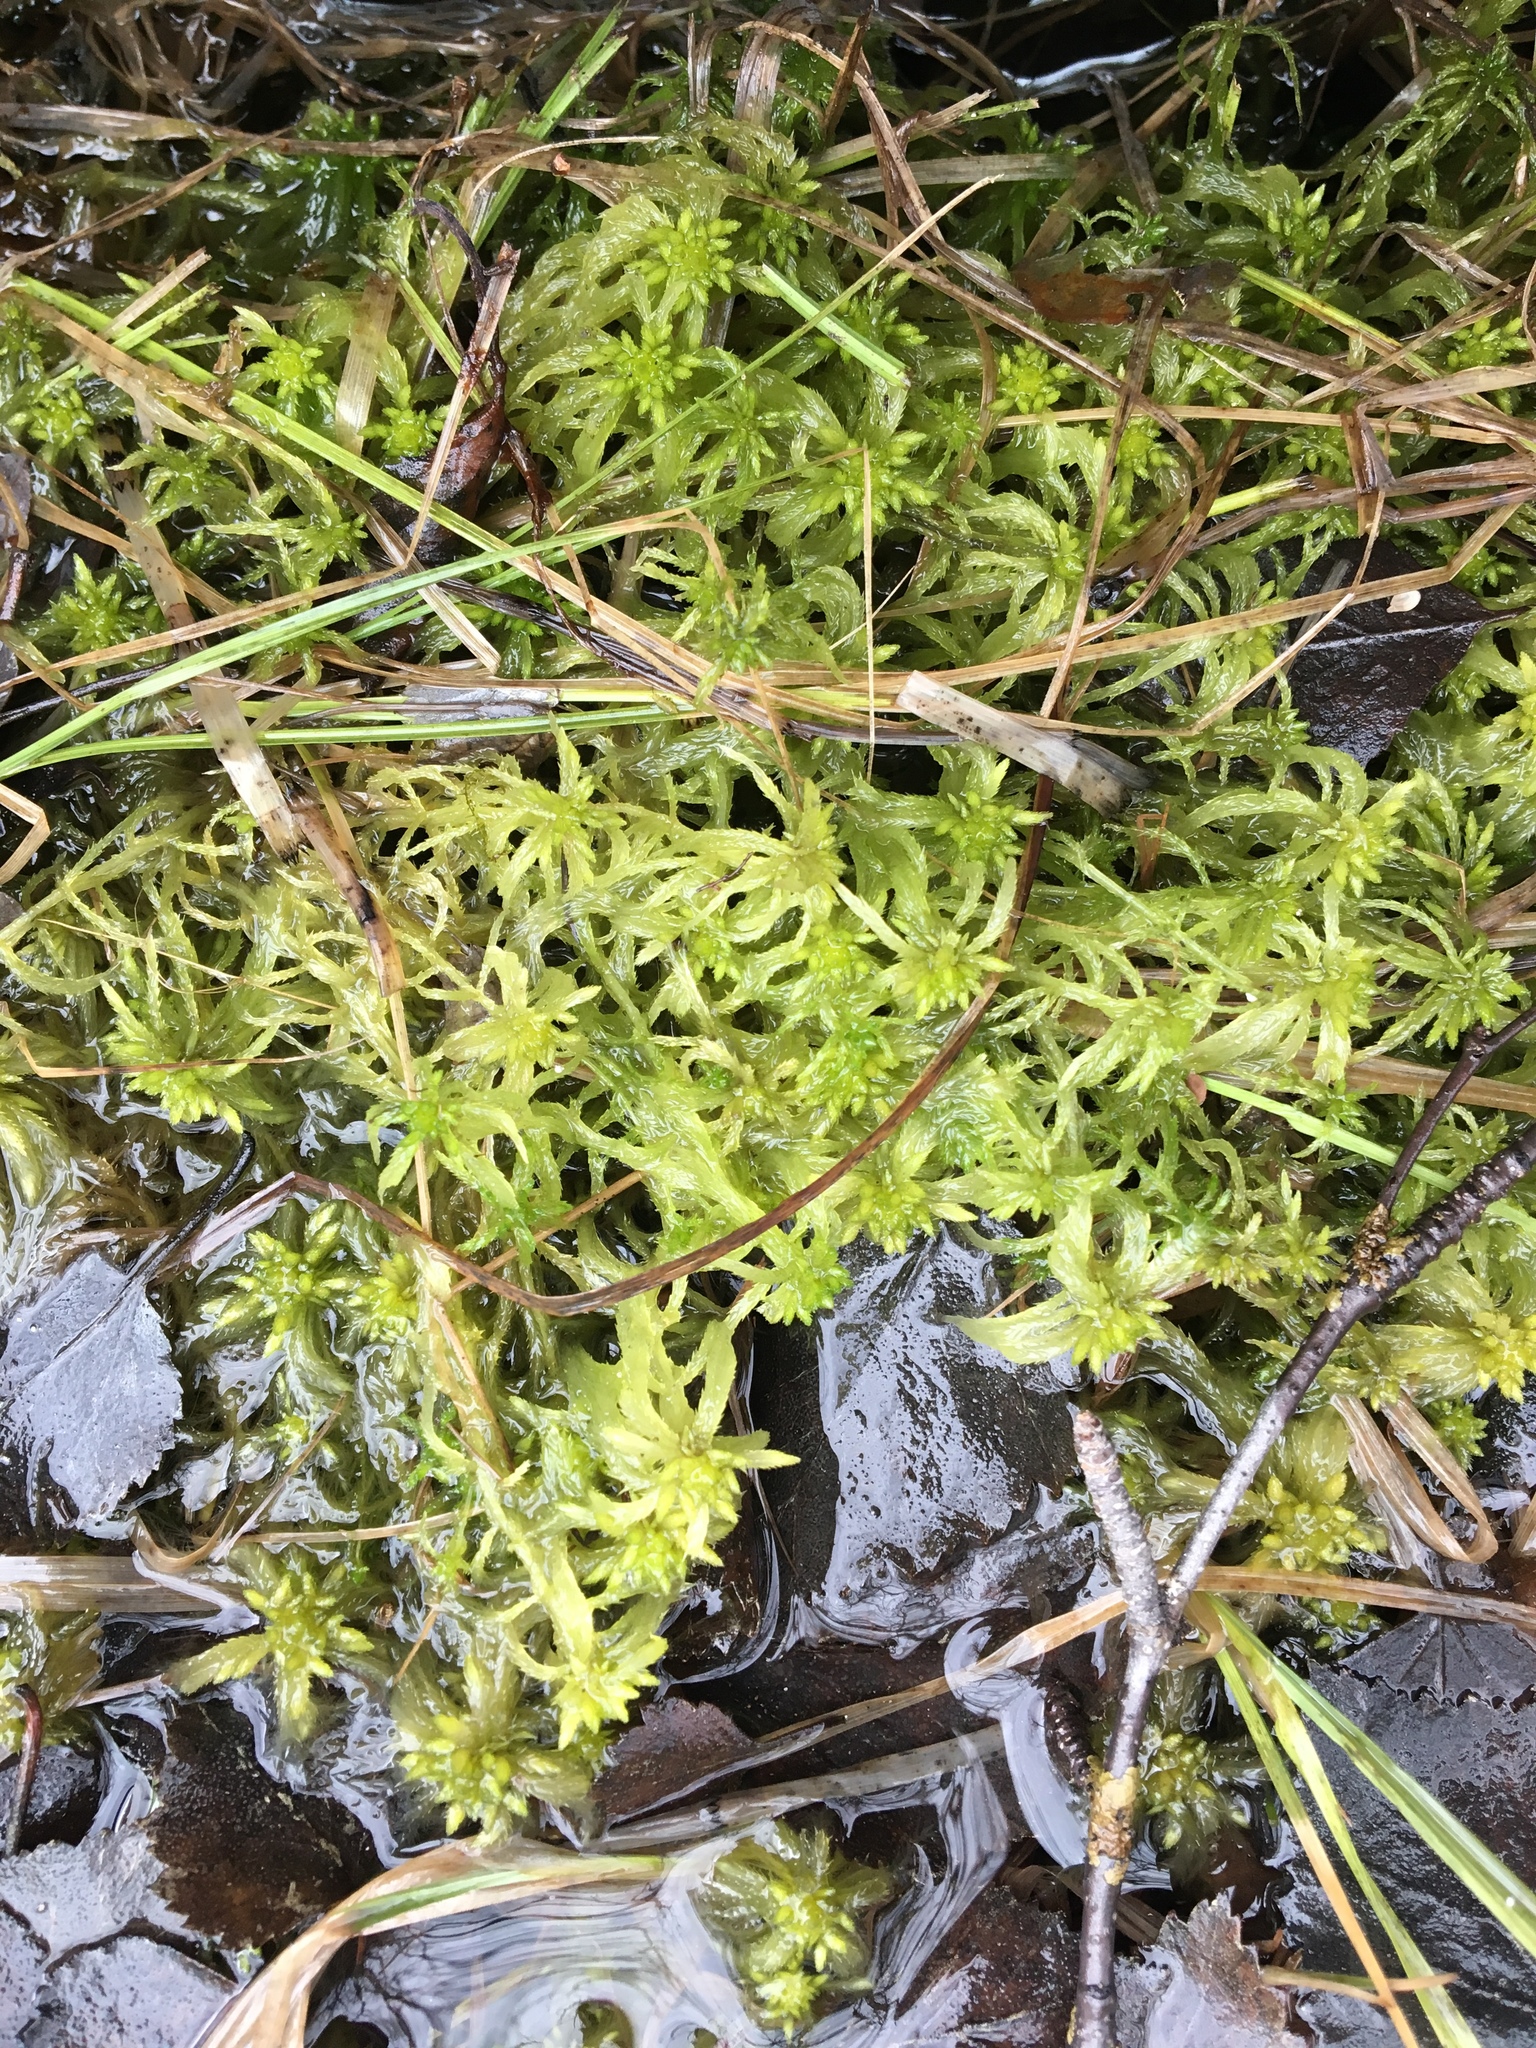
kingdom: Plantae
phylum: Bryophyta
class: Sphagnopsida
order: Sphagnales
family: Sphagnaceae
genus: Sphagnum
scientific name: Sphagnum riparium
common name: Streamside peat moss
